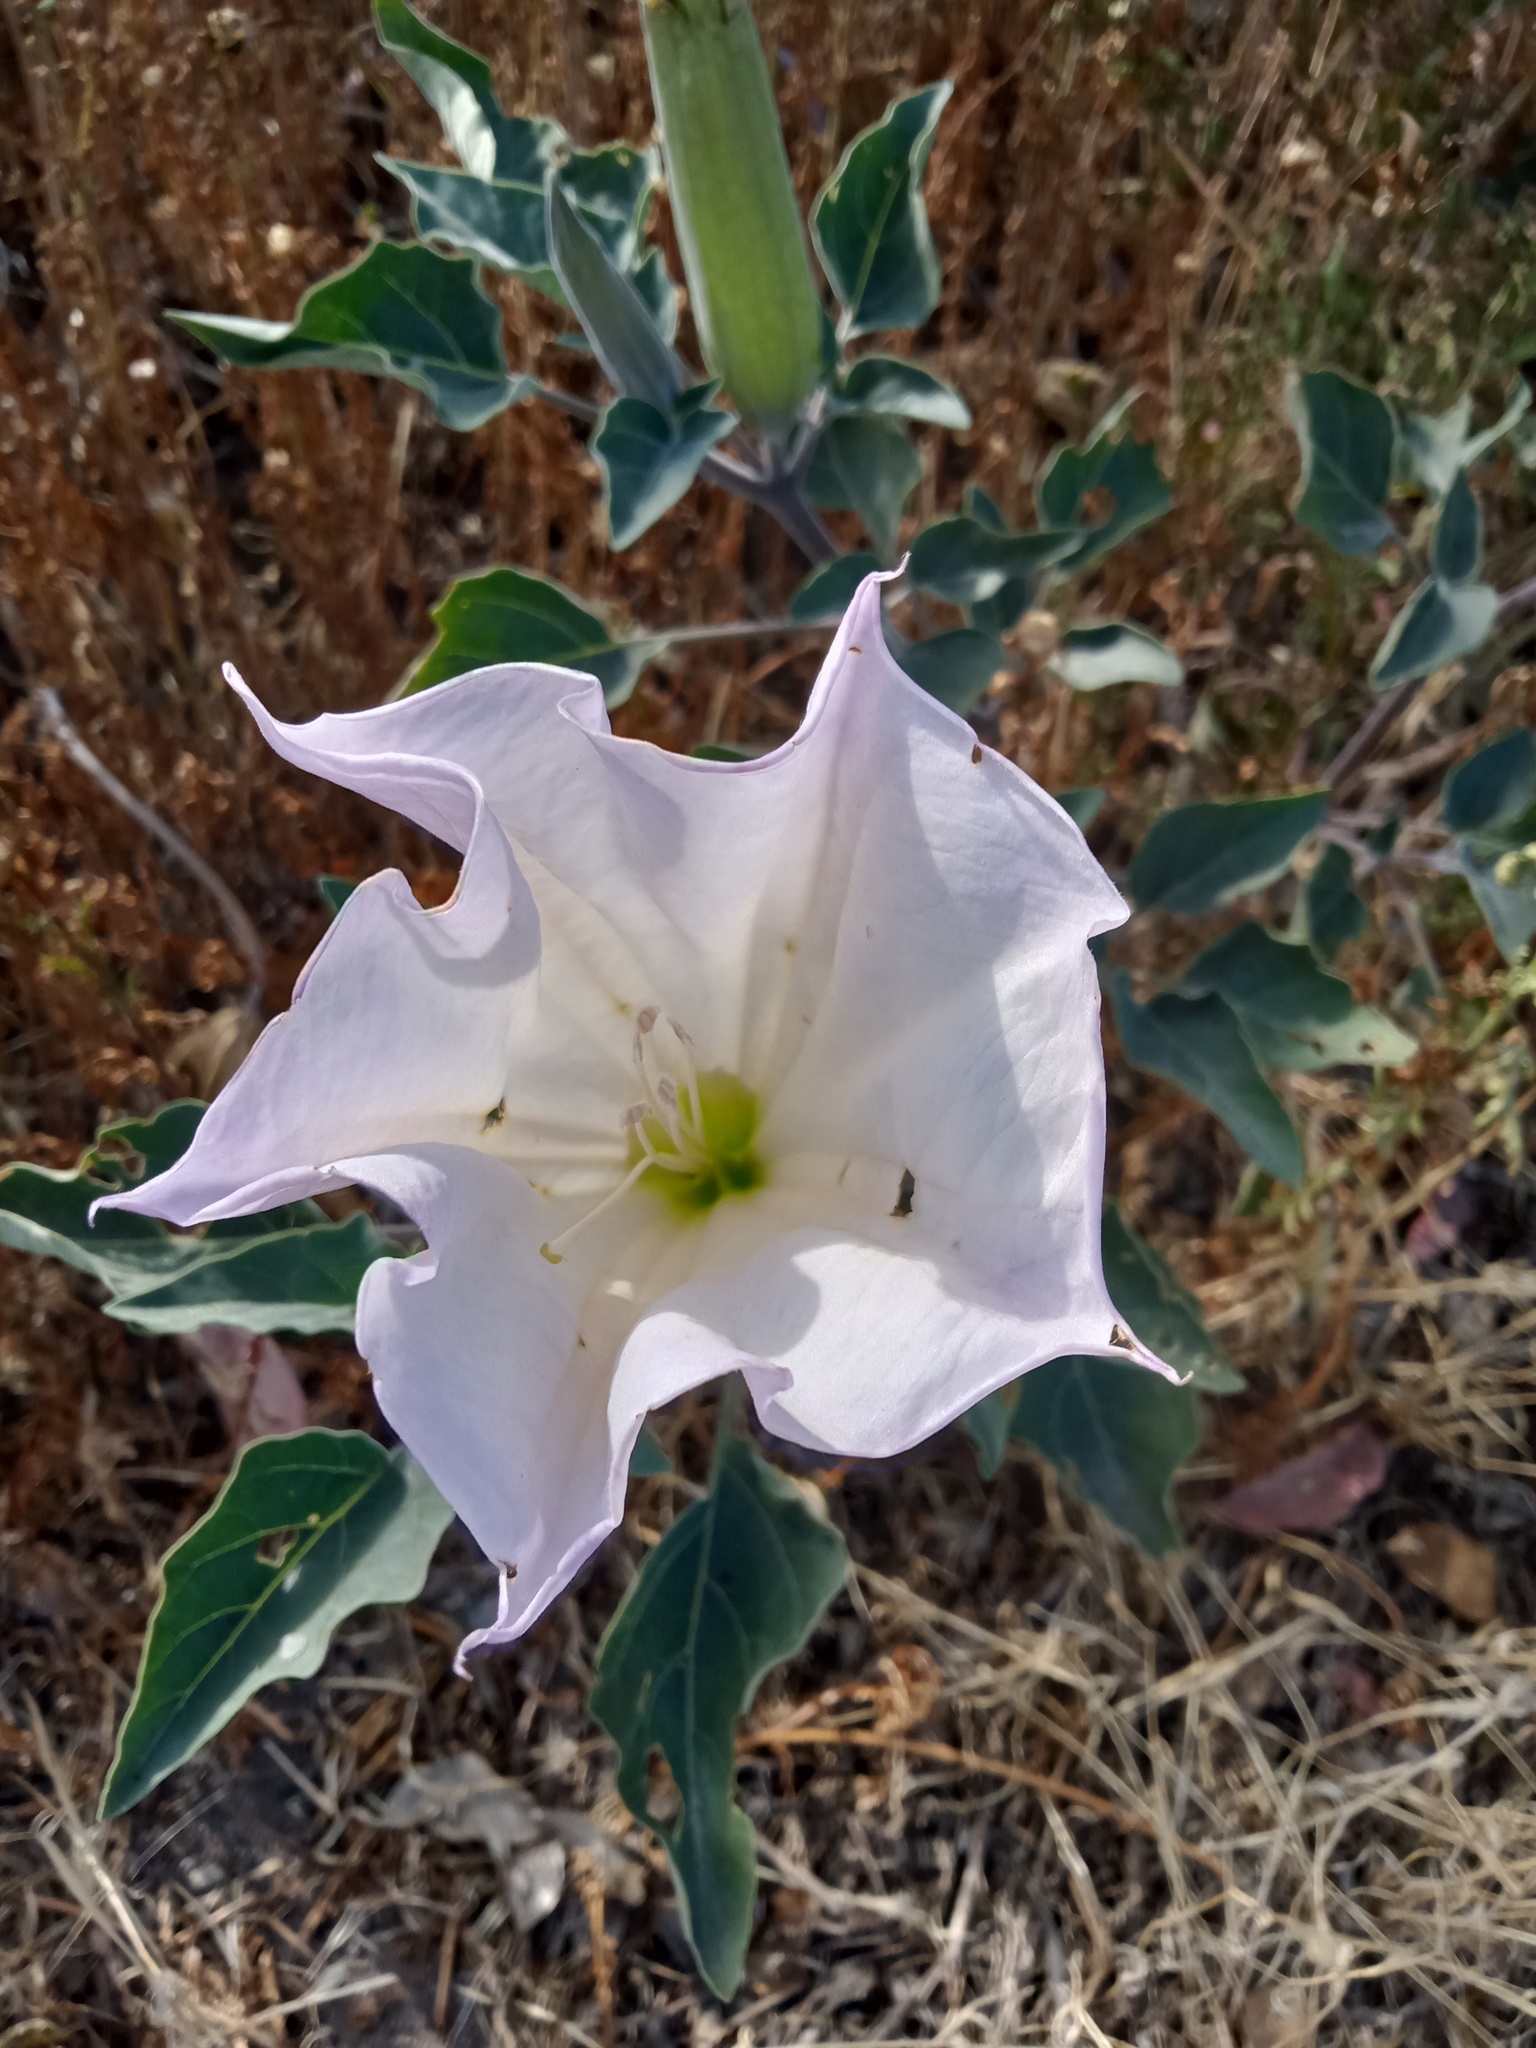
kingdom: Plantae
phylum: Tracheophyta
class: Magnoliopsida
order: Solanales
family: Solanaceae
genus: Datura
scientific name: Datura wrightii
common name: Sacred thorn-apple
